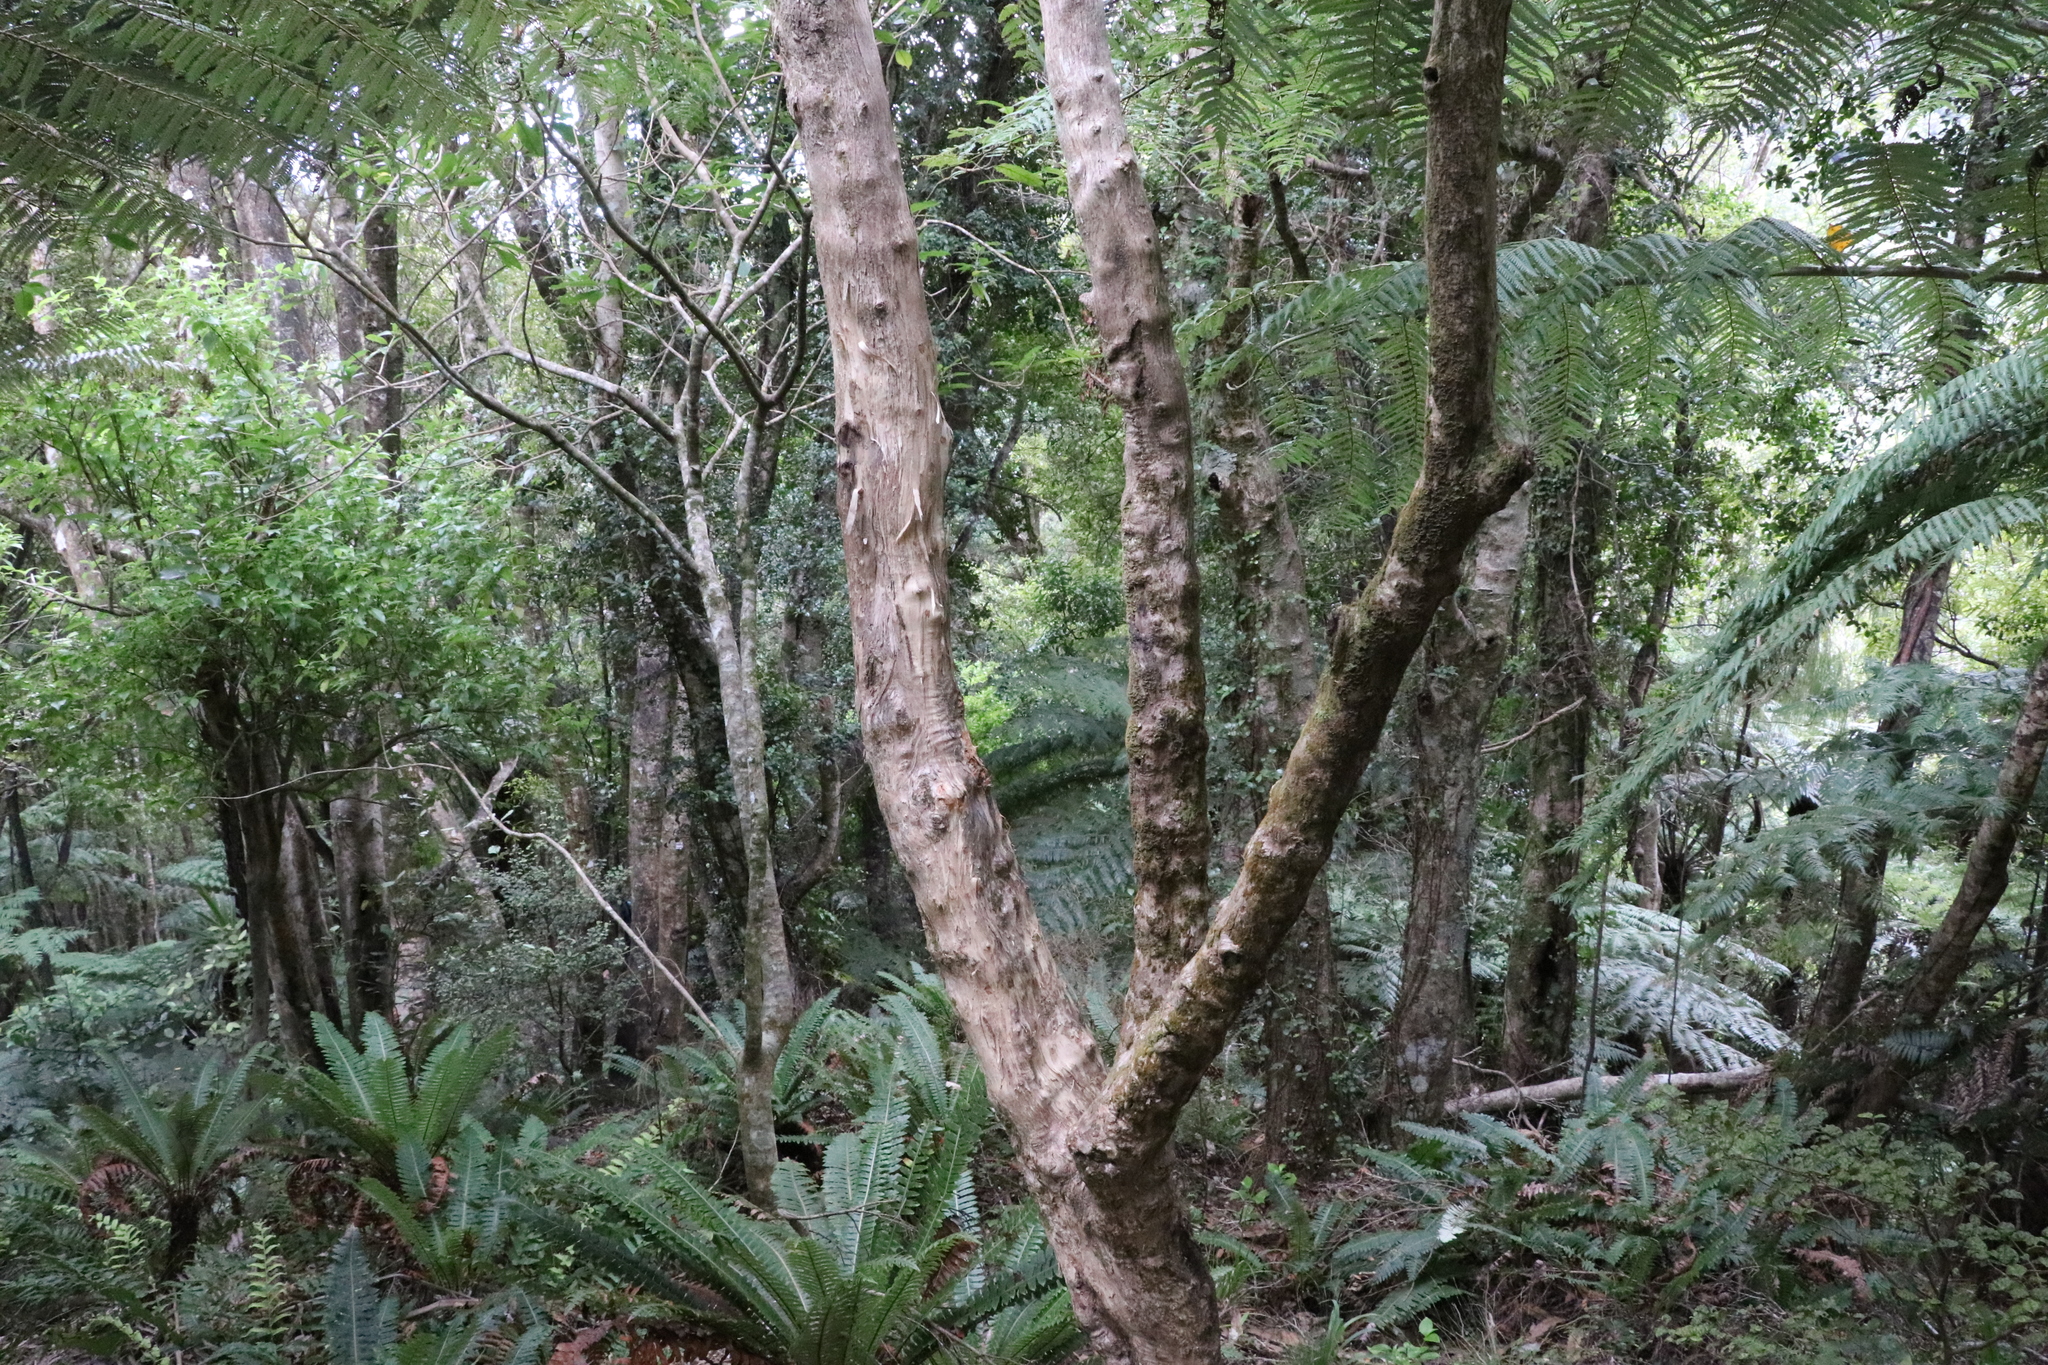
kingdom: Plantae
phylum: Tracheophyta
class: Magnoliopsida
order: Asterales
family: Asteraceae
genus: Olearia
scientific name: Olearia rani
